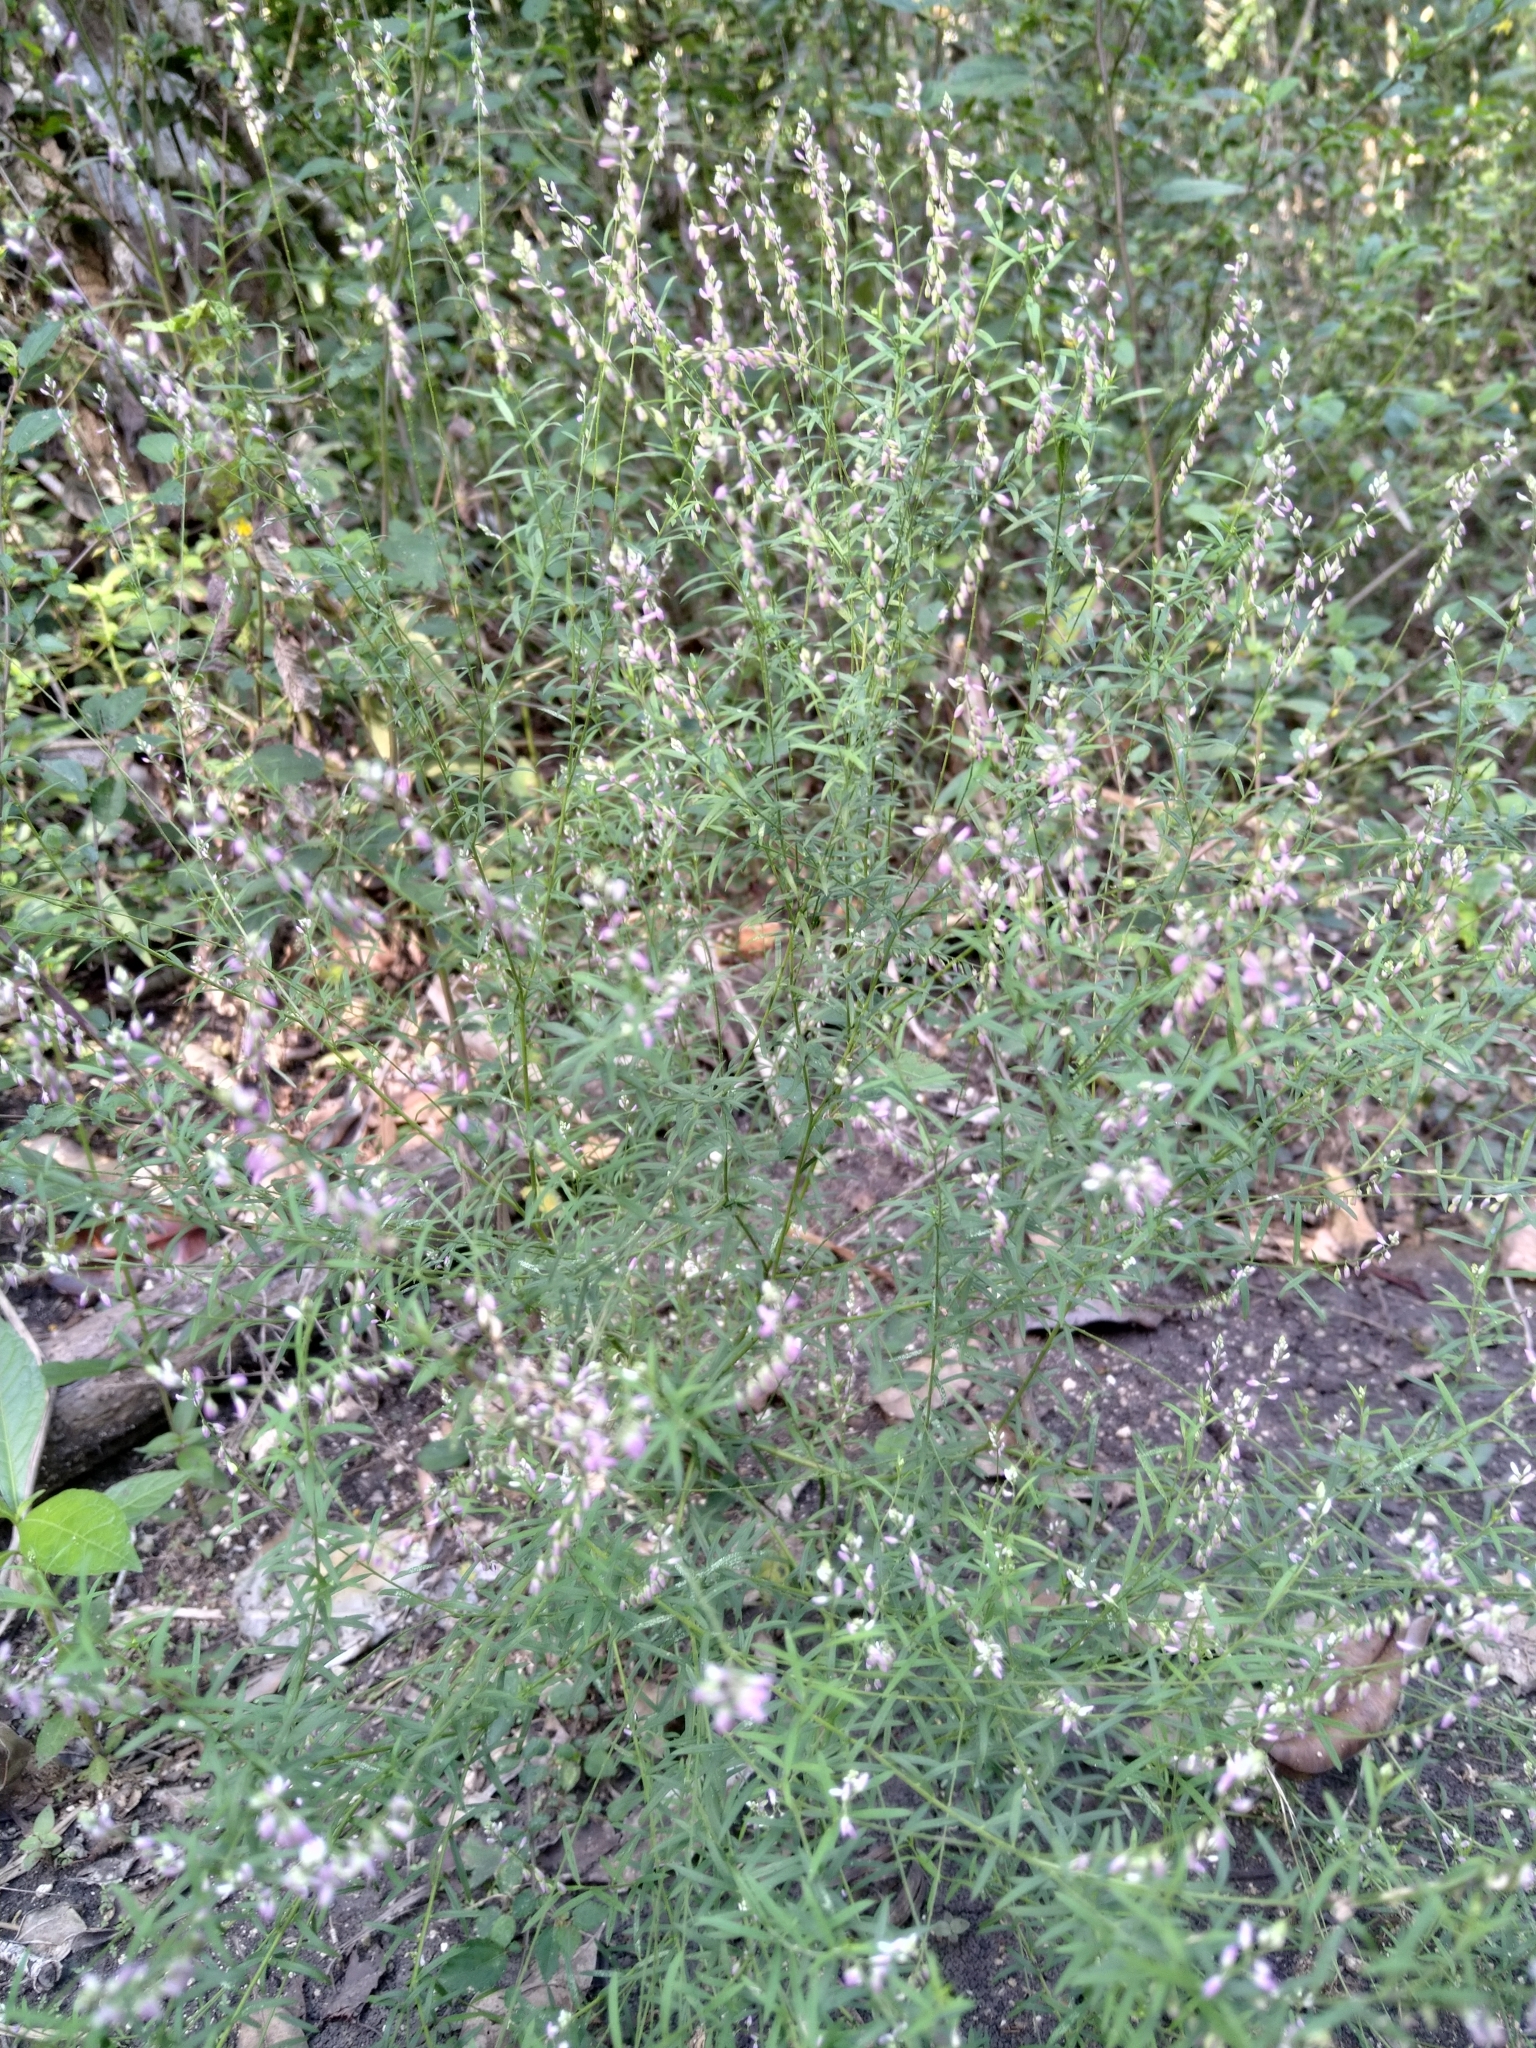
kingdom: Plantae
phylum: Tracheophyta
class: Magnoliopsida
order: Fabales
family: Polygalaceae
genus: Polygala
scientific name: Polygala paniculata
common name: Orosne
